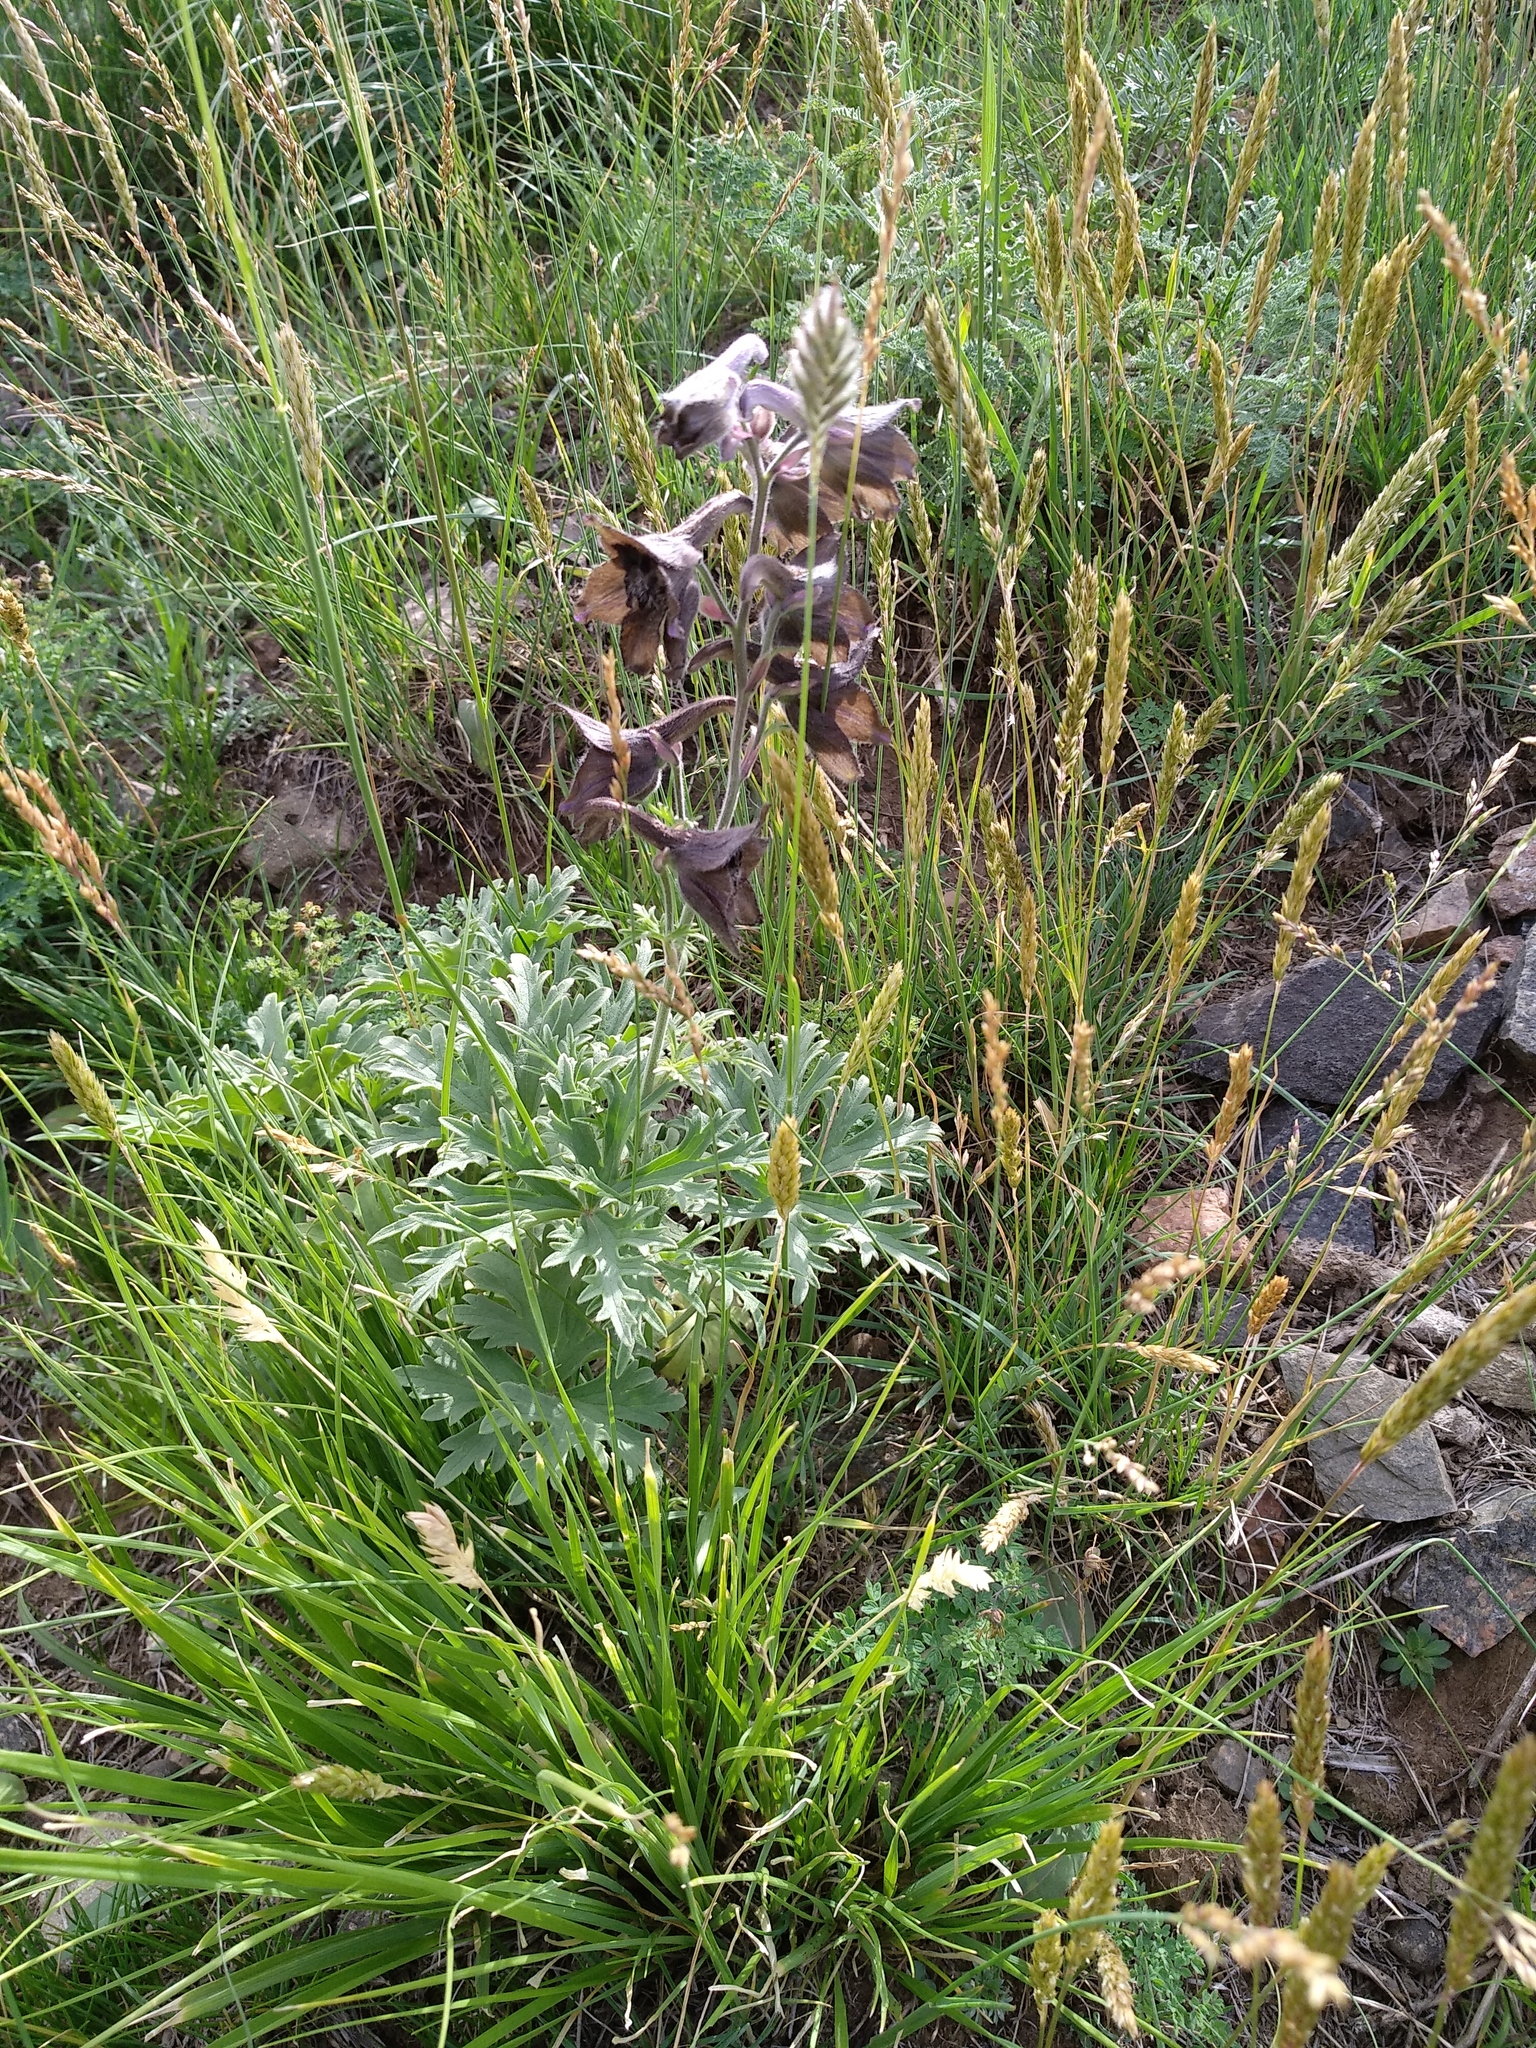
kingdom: Plantae
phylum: Tracheophyta
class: Magnoliopsida
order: Ranunculales
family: Ranunculaceae
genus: Delphinium
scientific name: Delphinium triste
